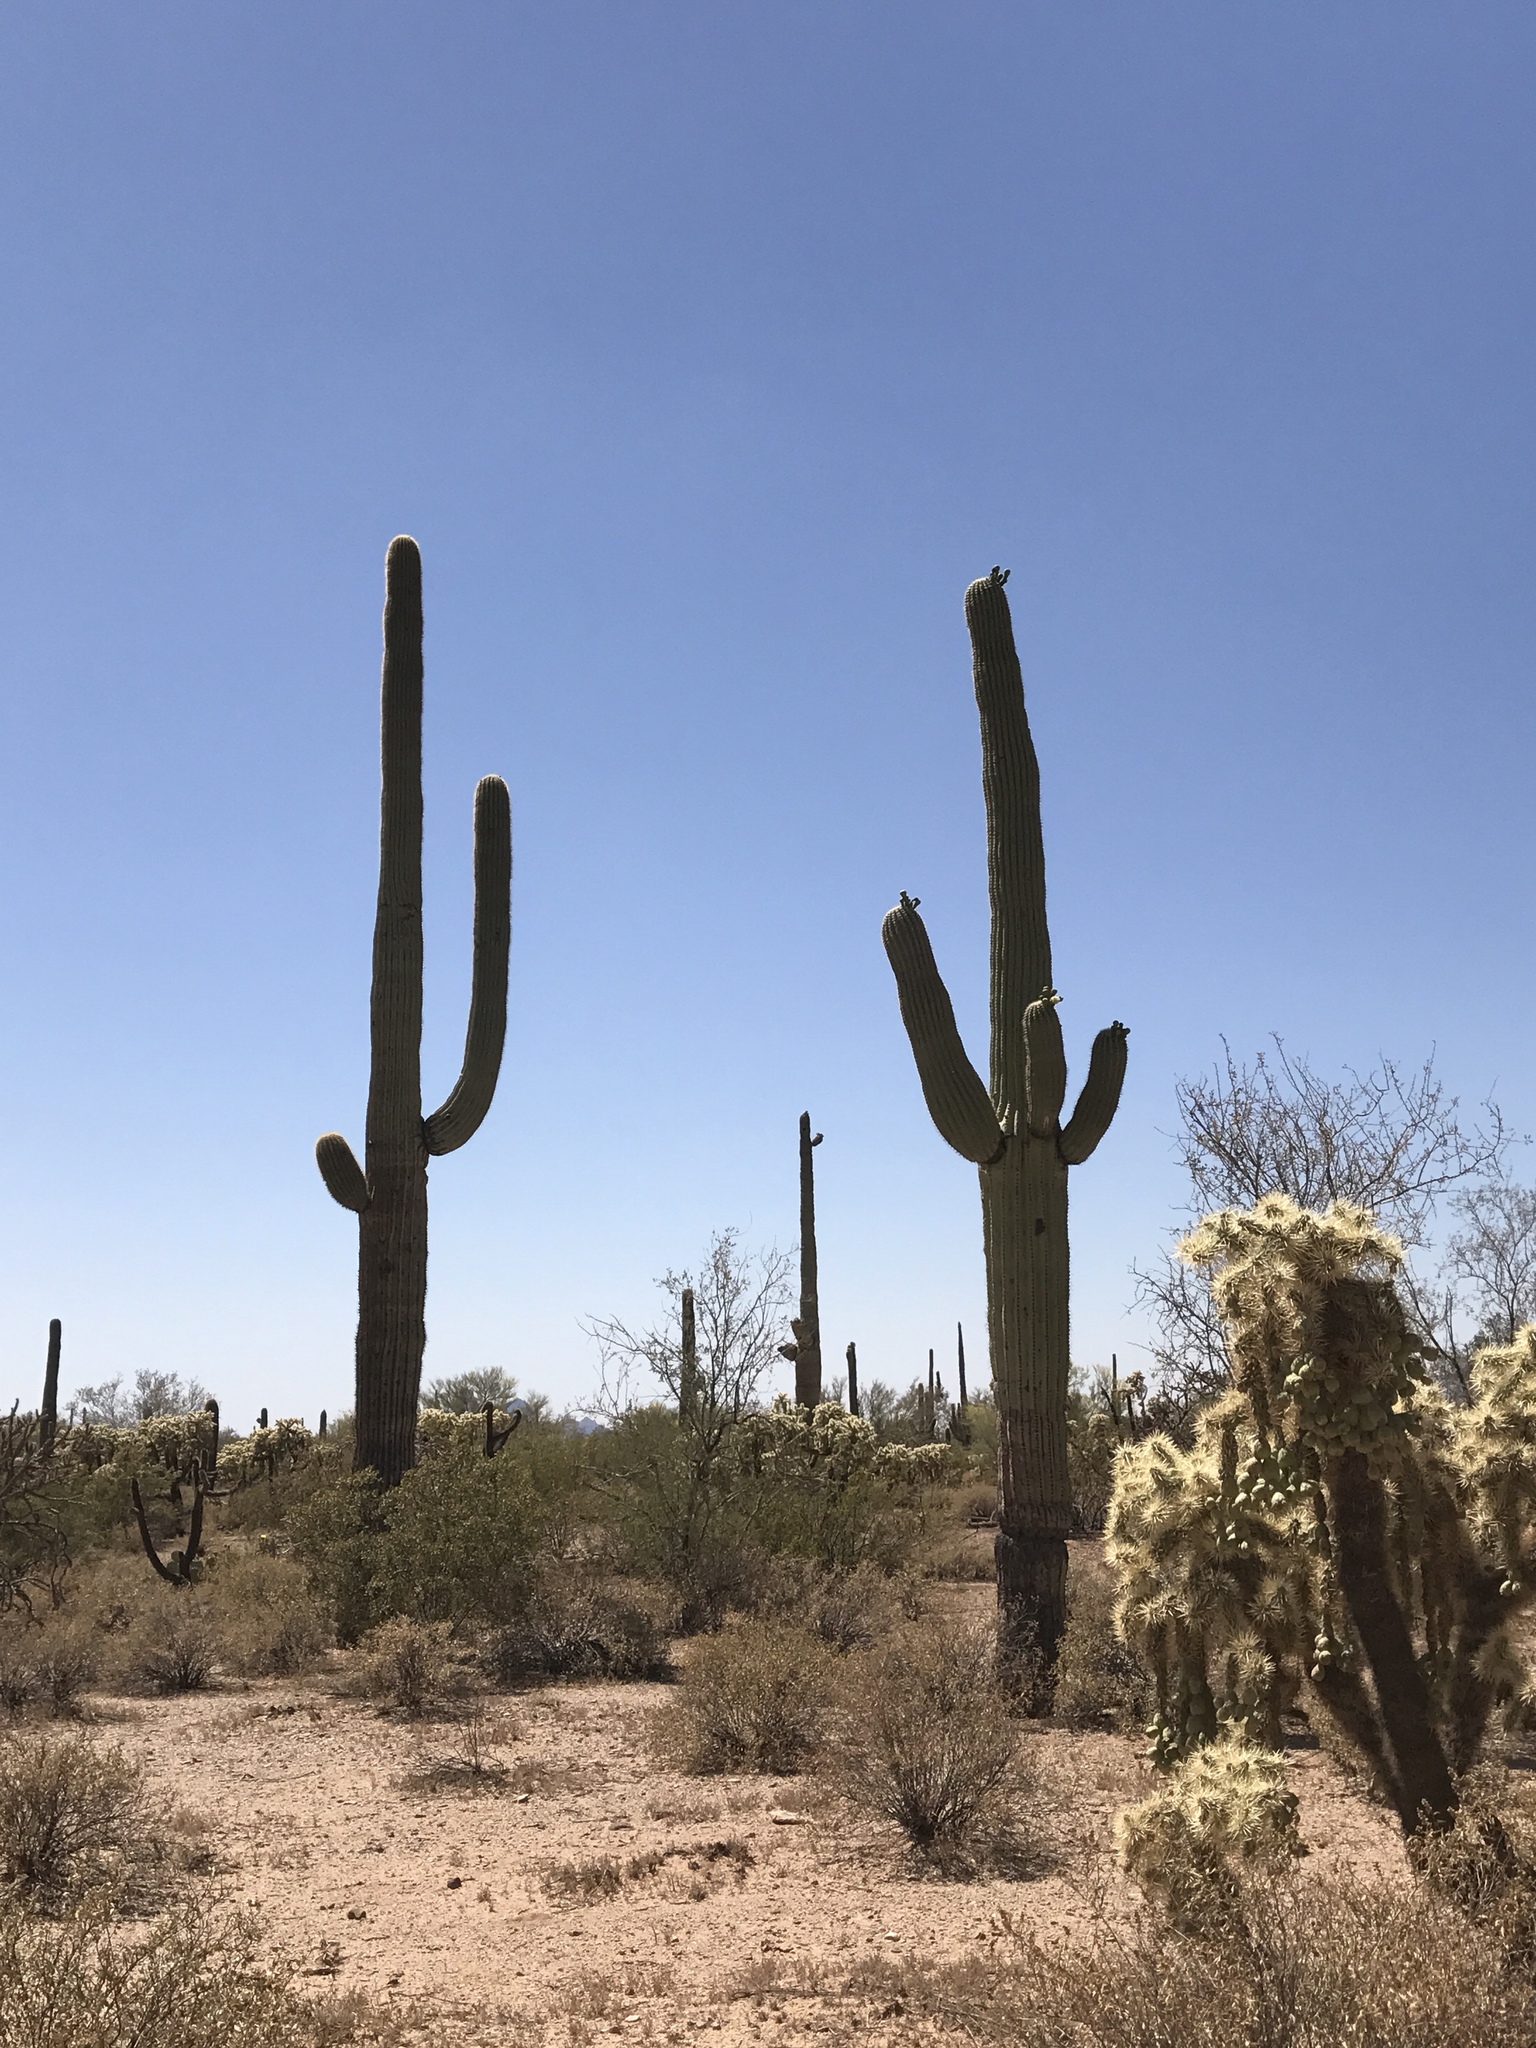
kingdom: Plantae
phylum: Tracheophyta
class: Magnoliopsida
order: Caryophyllales
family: Cactaceae
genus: Cylindropuntia
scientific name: Cylindropuntia fulgida
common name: Jumping cholla
